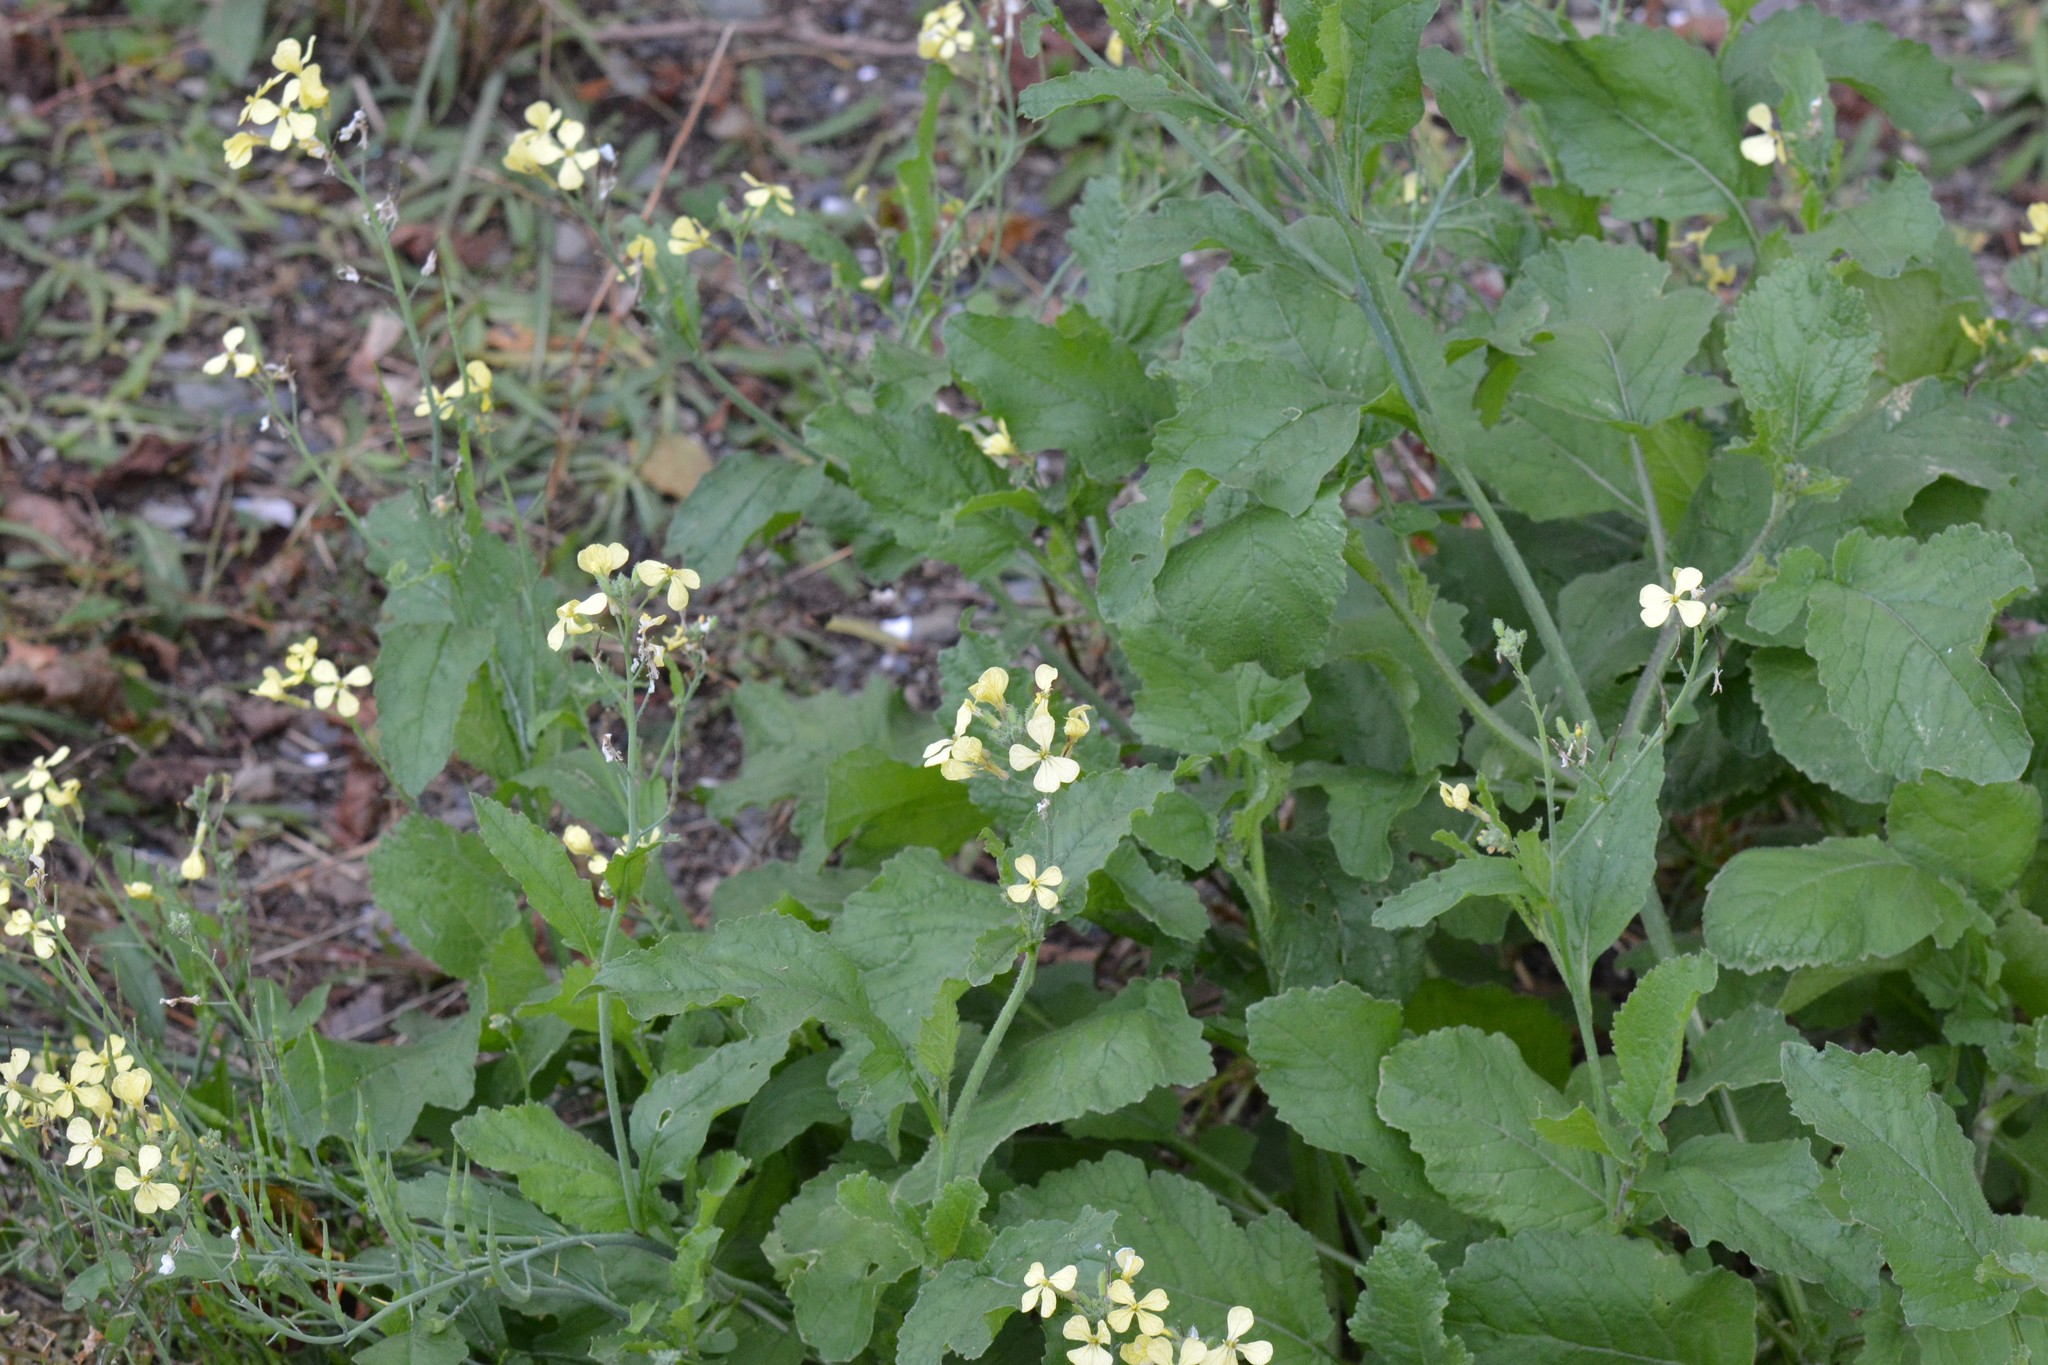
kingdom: Plantae
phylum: Tracheophyta
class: Magnoliopsida
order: Brassicales
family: Brassicaceae
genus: Raphanus
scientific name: Raphanus raphanistrum
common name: Wild radish
